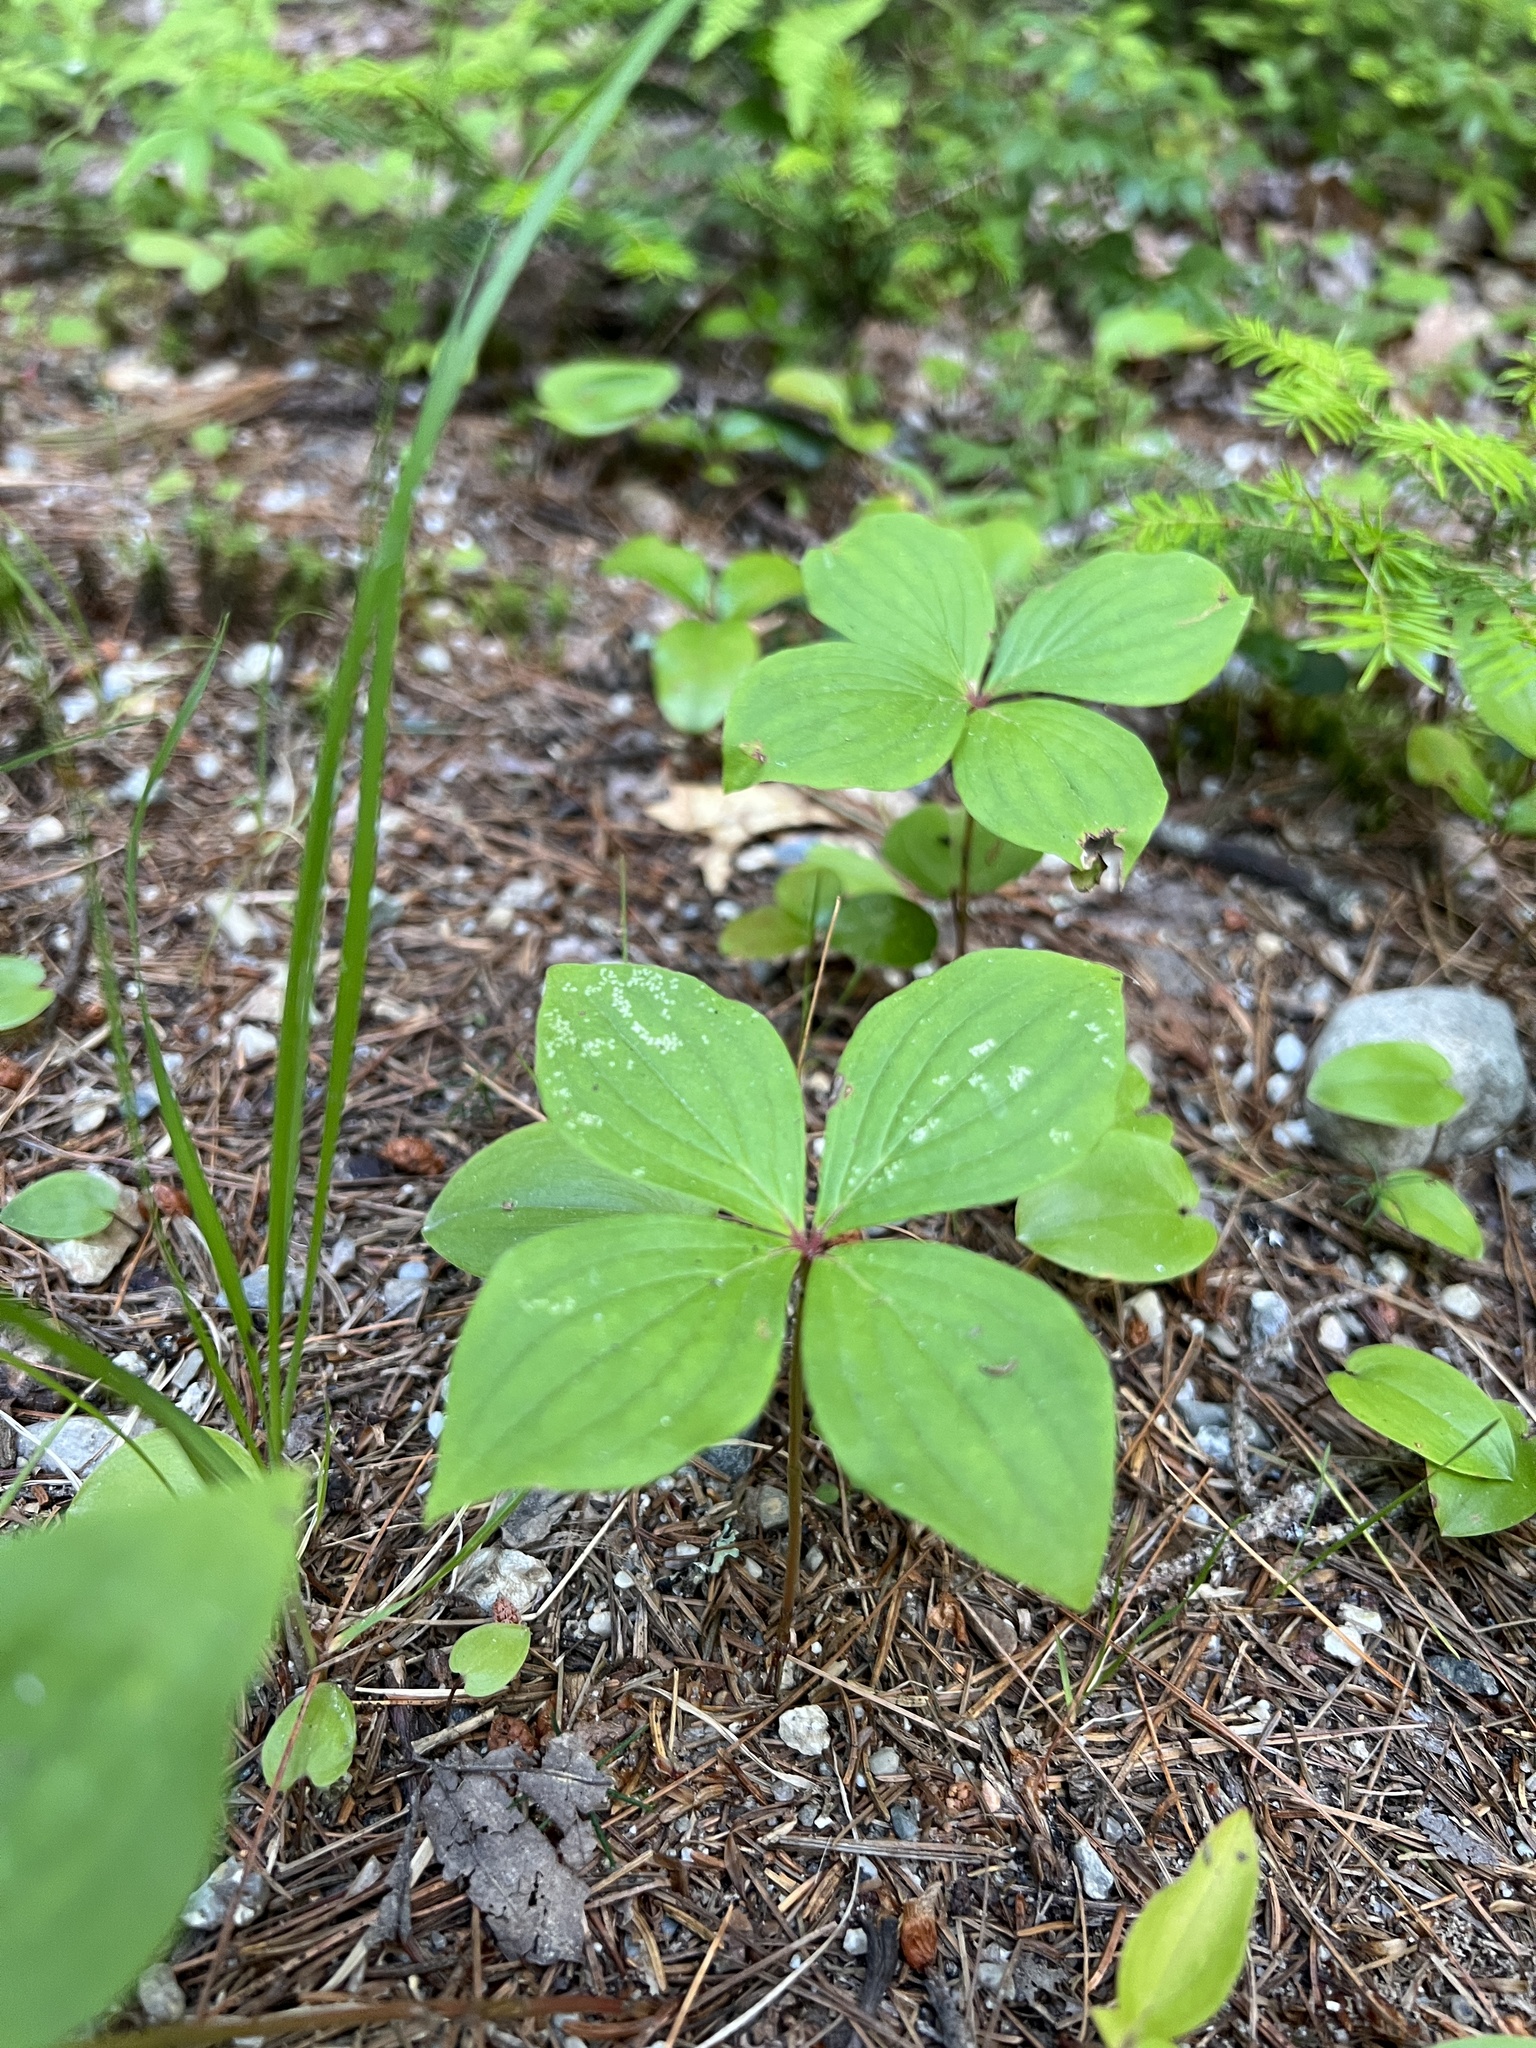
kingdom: Plantae
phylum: Tracheophyta
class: Magnoliopsida
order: Cornales
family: Cornaceae
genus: Cornus
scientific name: Cornus canadensis
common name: Creeping dogwood
